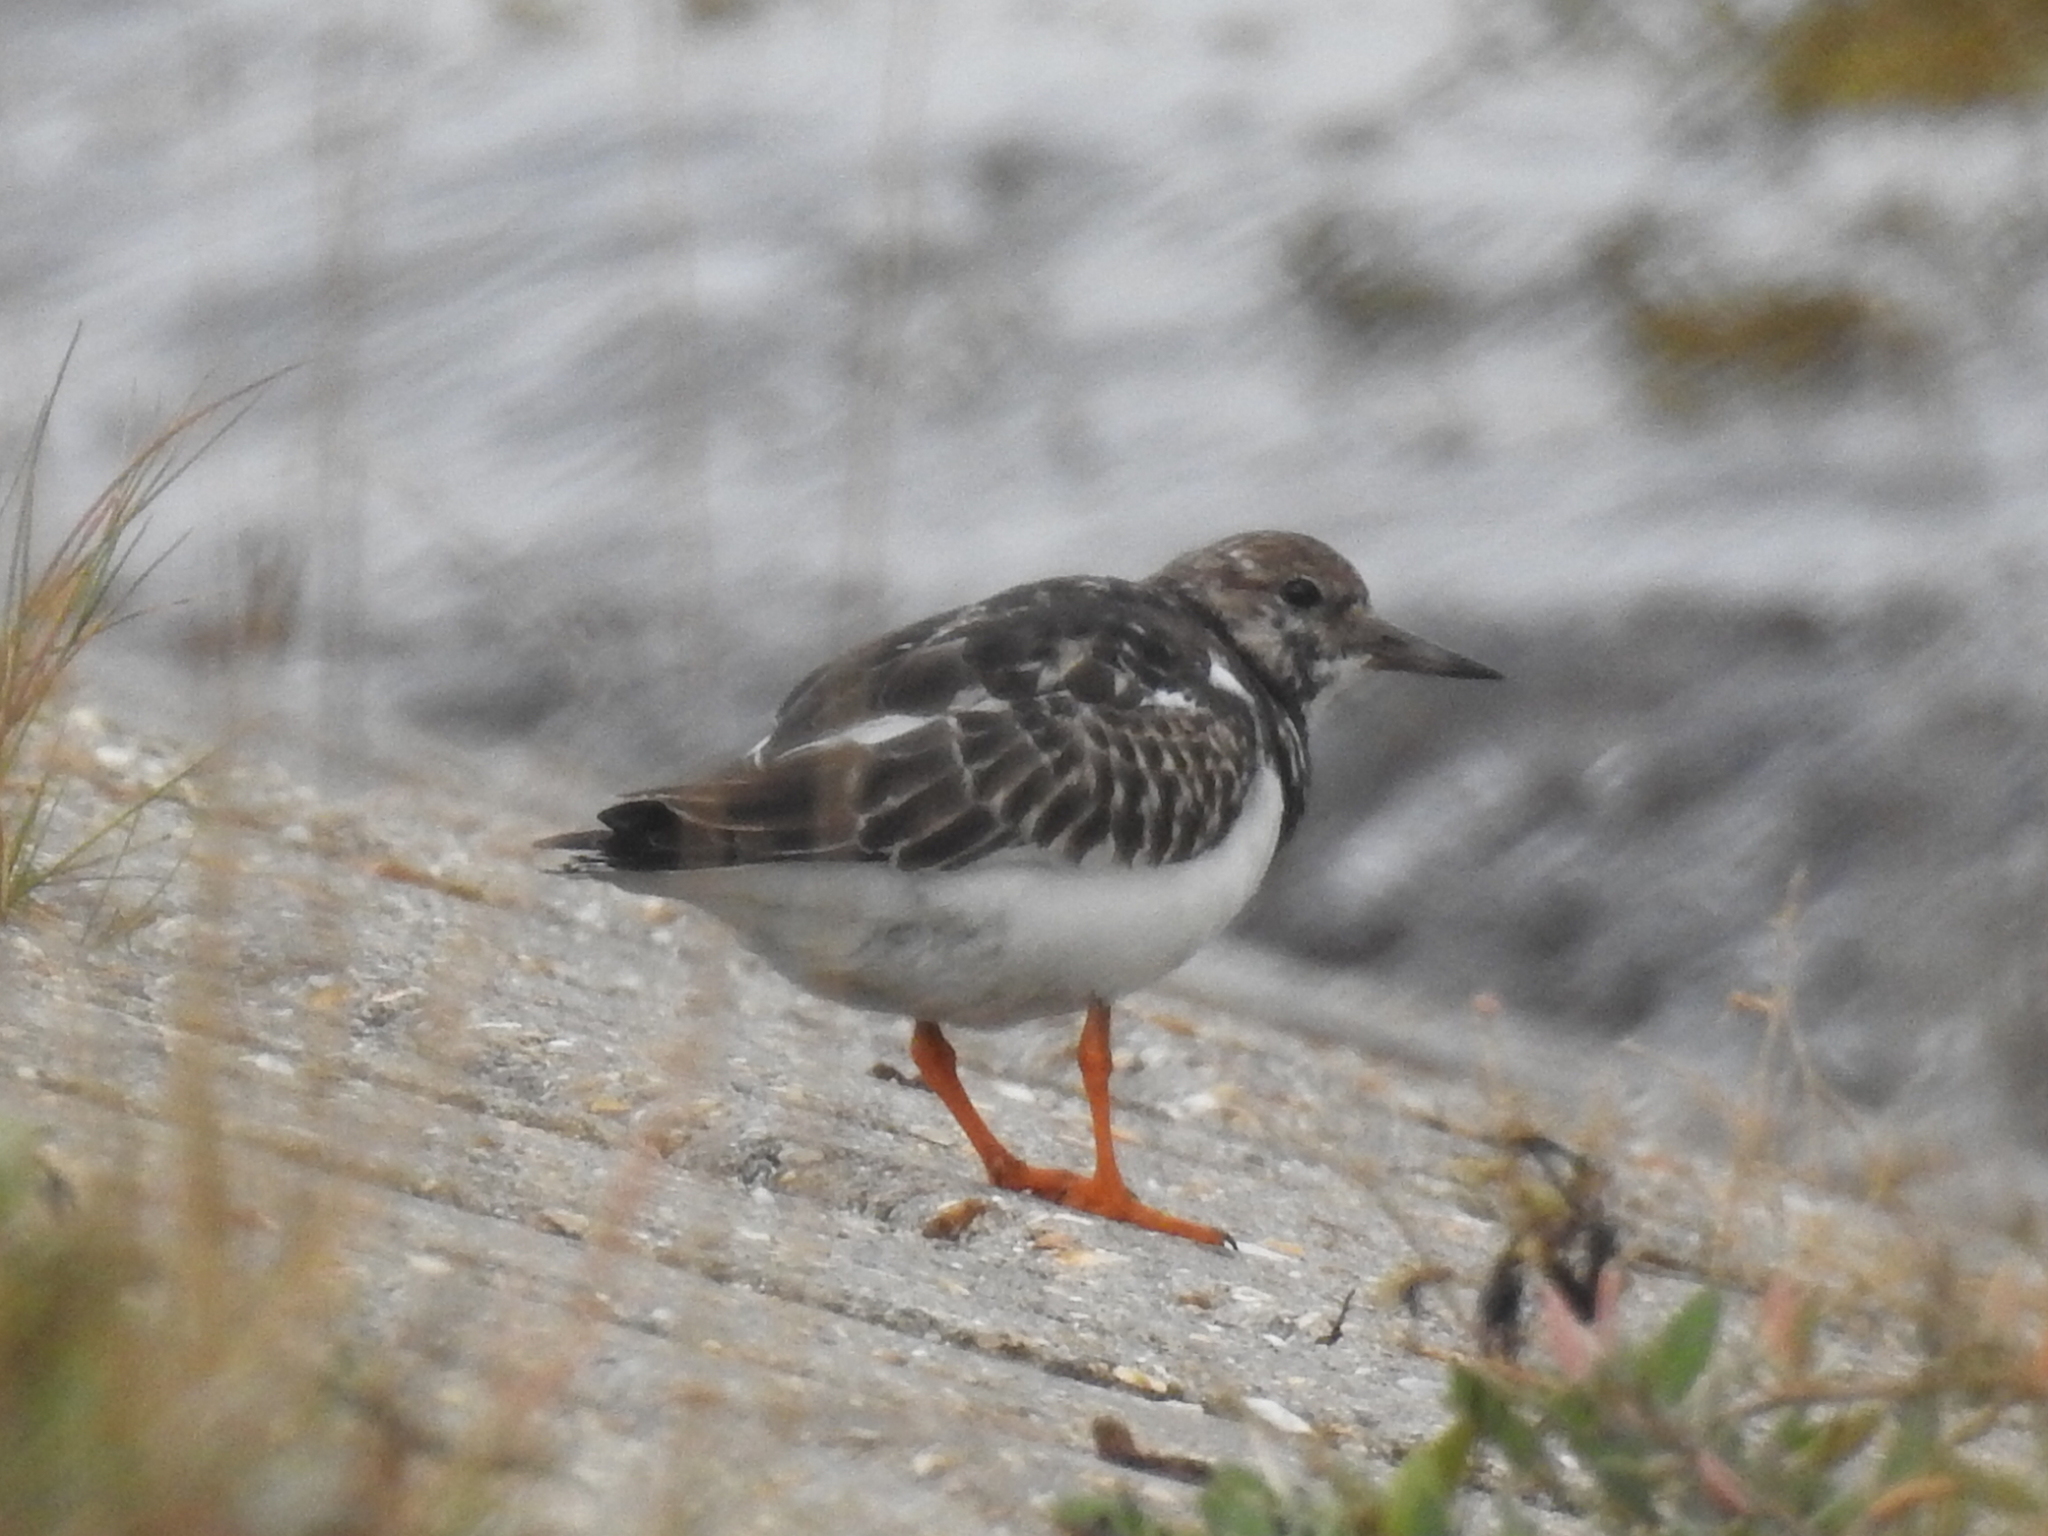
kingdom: Animalia
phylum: Chordata
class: Aves
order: Charadriiformes
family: Scolopacidae
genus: Arenaria
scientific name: Arenaria interpres
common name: Ruddy turnstone
